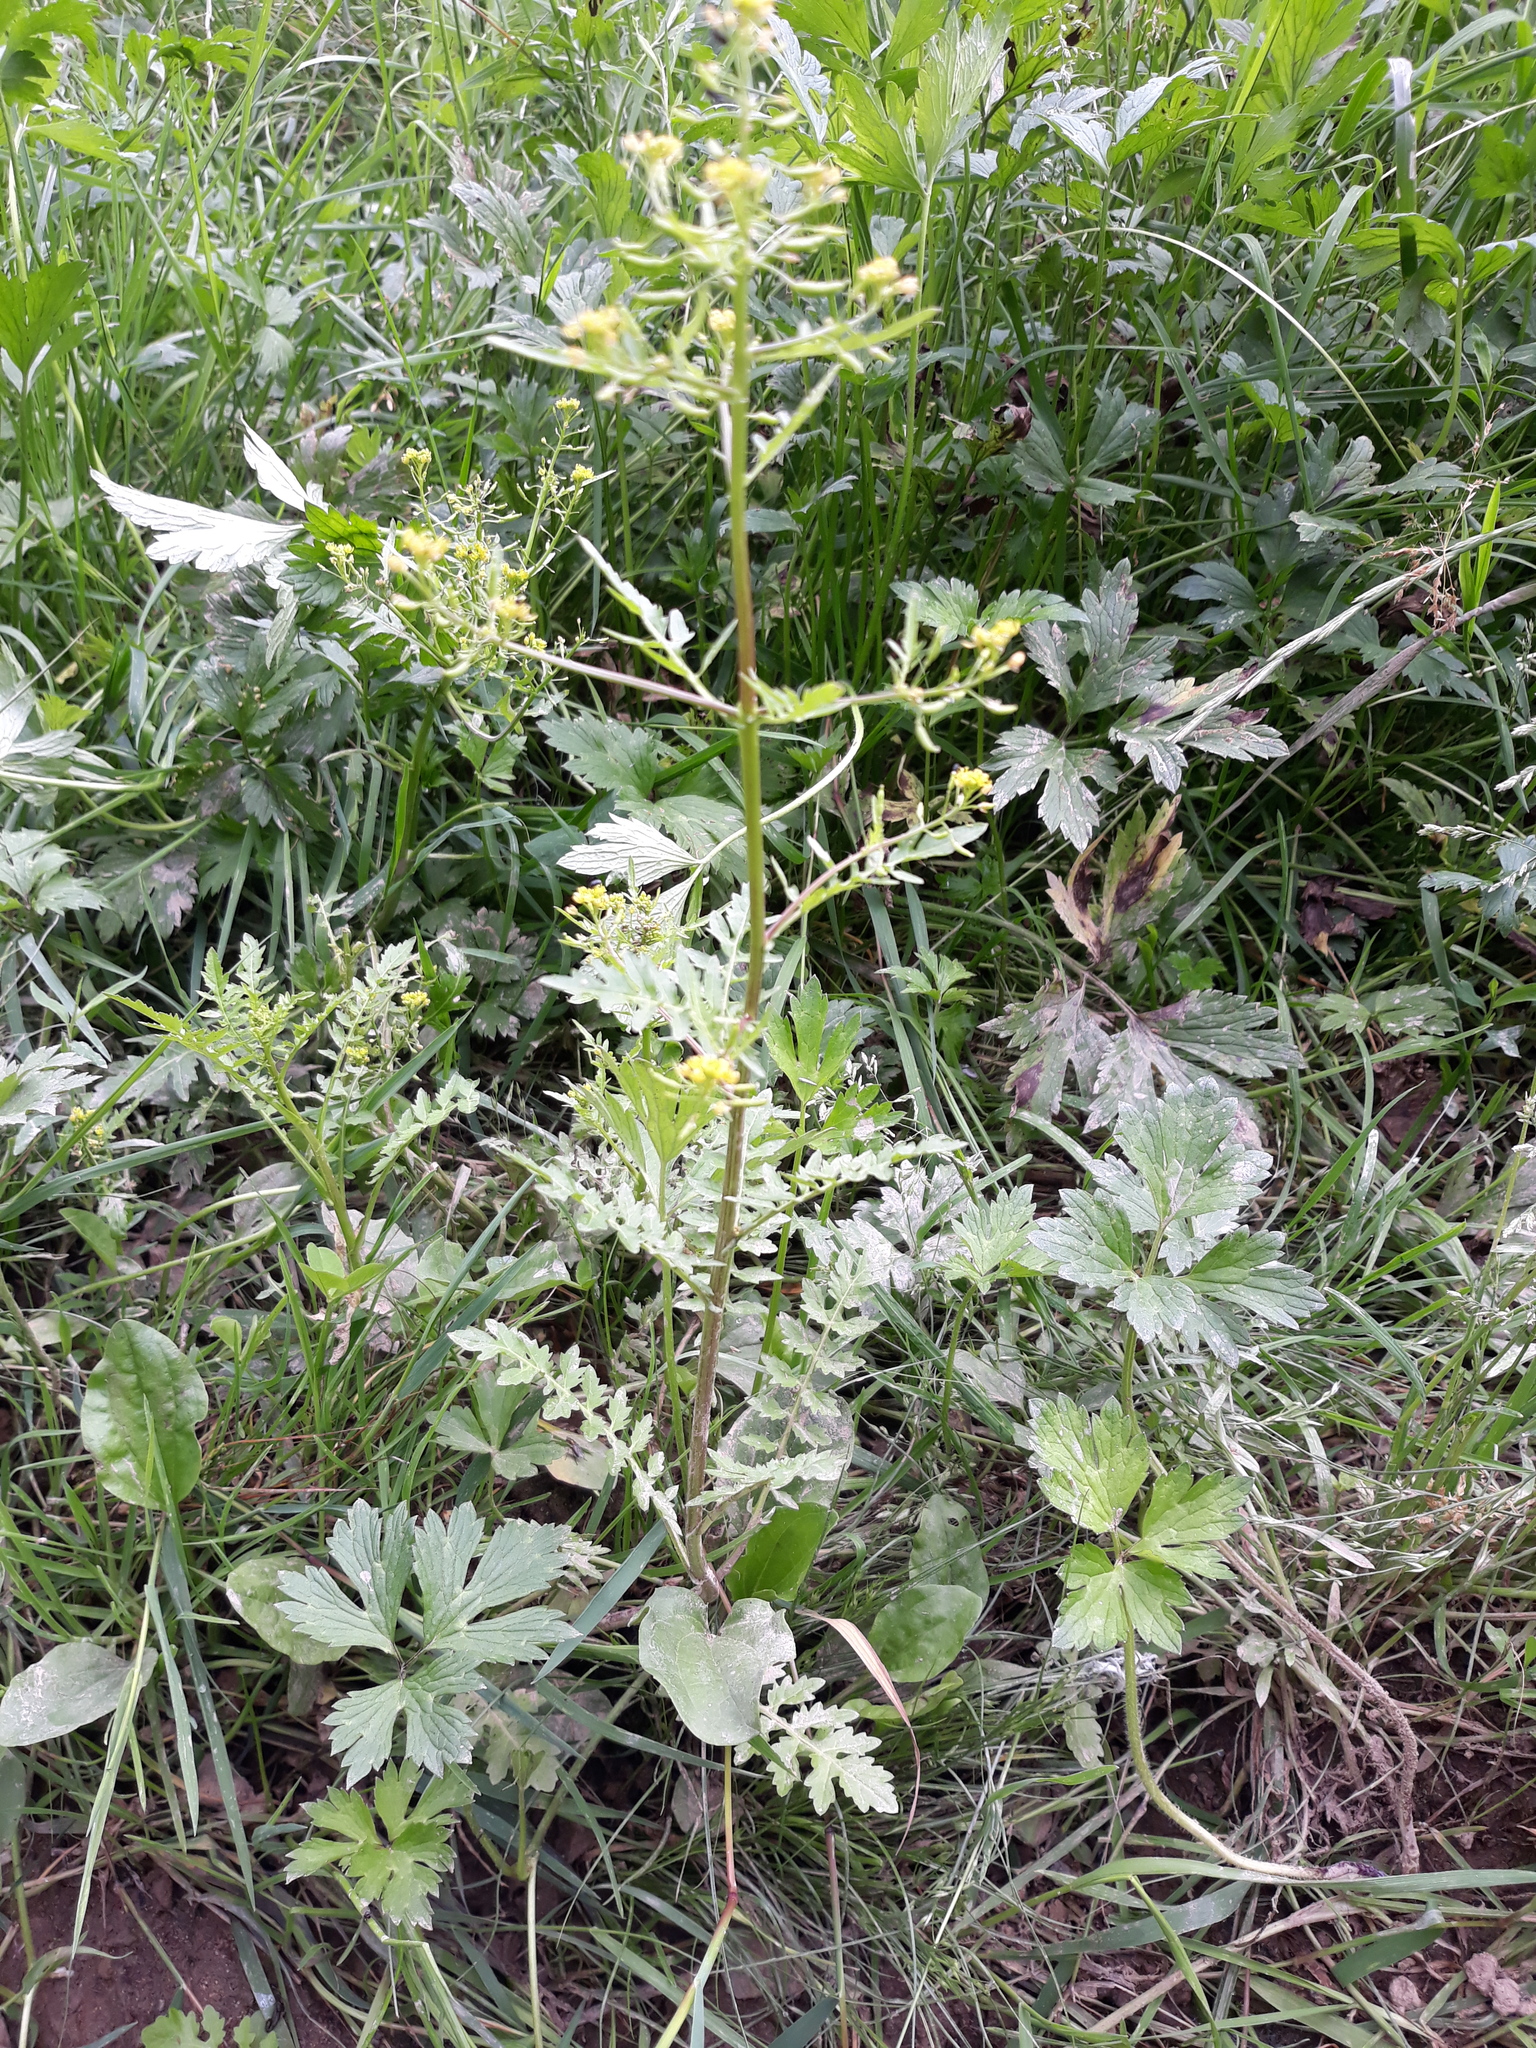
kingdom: Plantae
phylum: Tracheophyta
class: Magnoliopsida
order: Brassicales
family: Brassicaceae
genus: Rorippa
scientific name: Rorippa palustris
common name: Marsh yellow-cress
